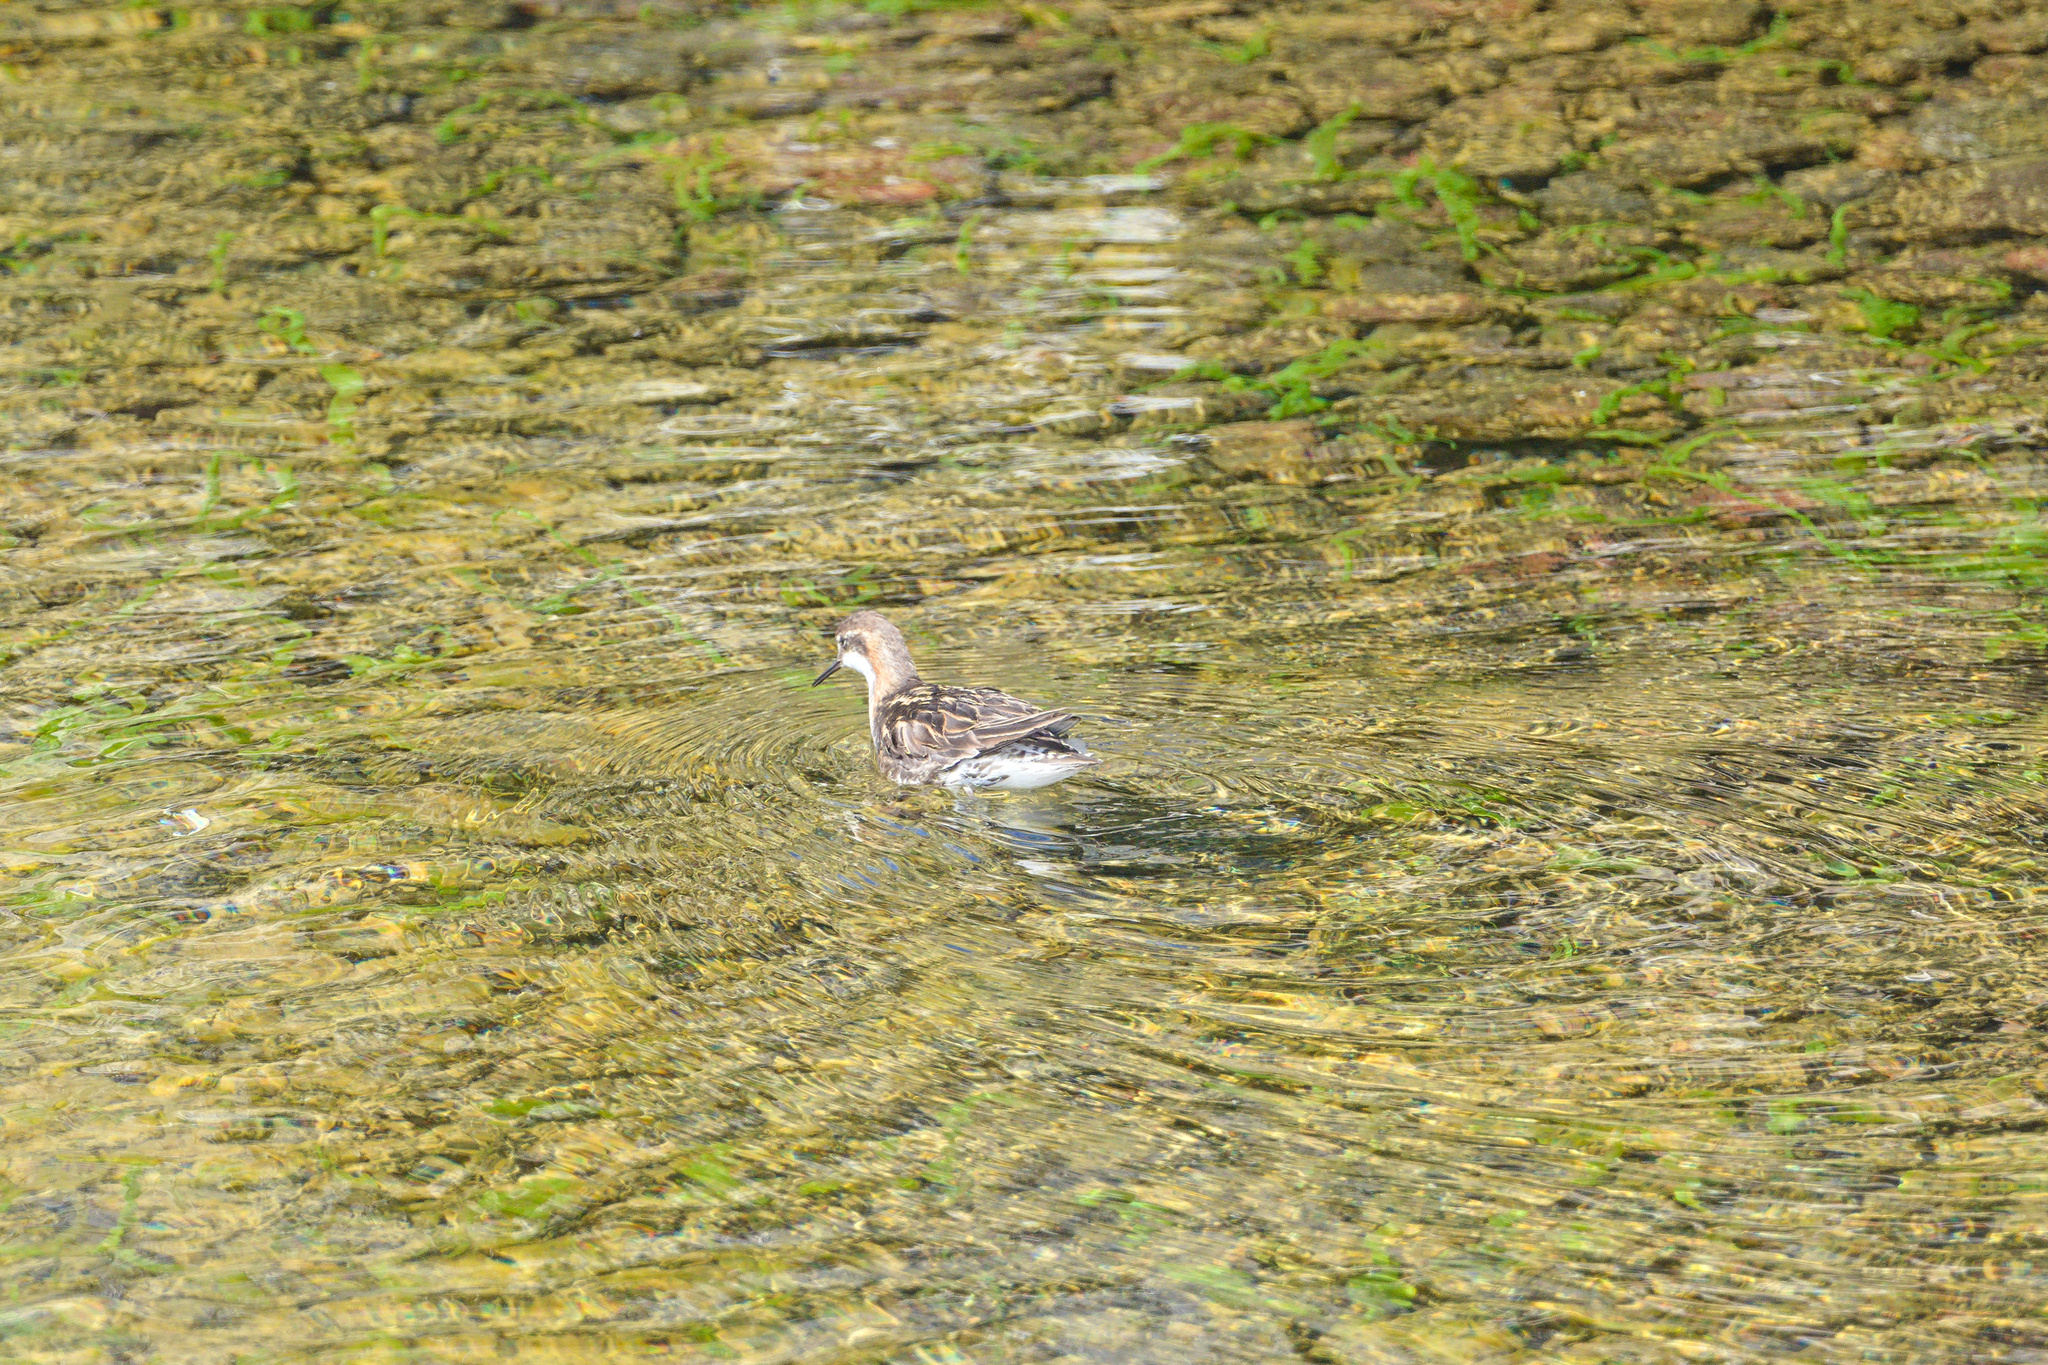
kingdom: Animalia
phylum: Chordata
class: Aves
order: Charadriiformes
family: Scolopacidae
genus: Phalaropus
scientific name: Phalaropus lobatus
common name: Red-necked phalarope
